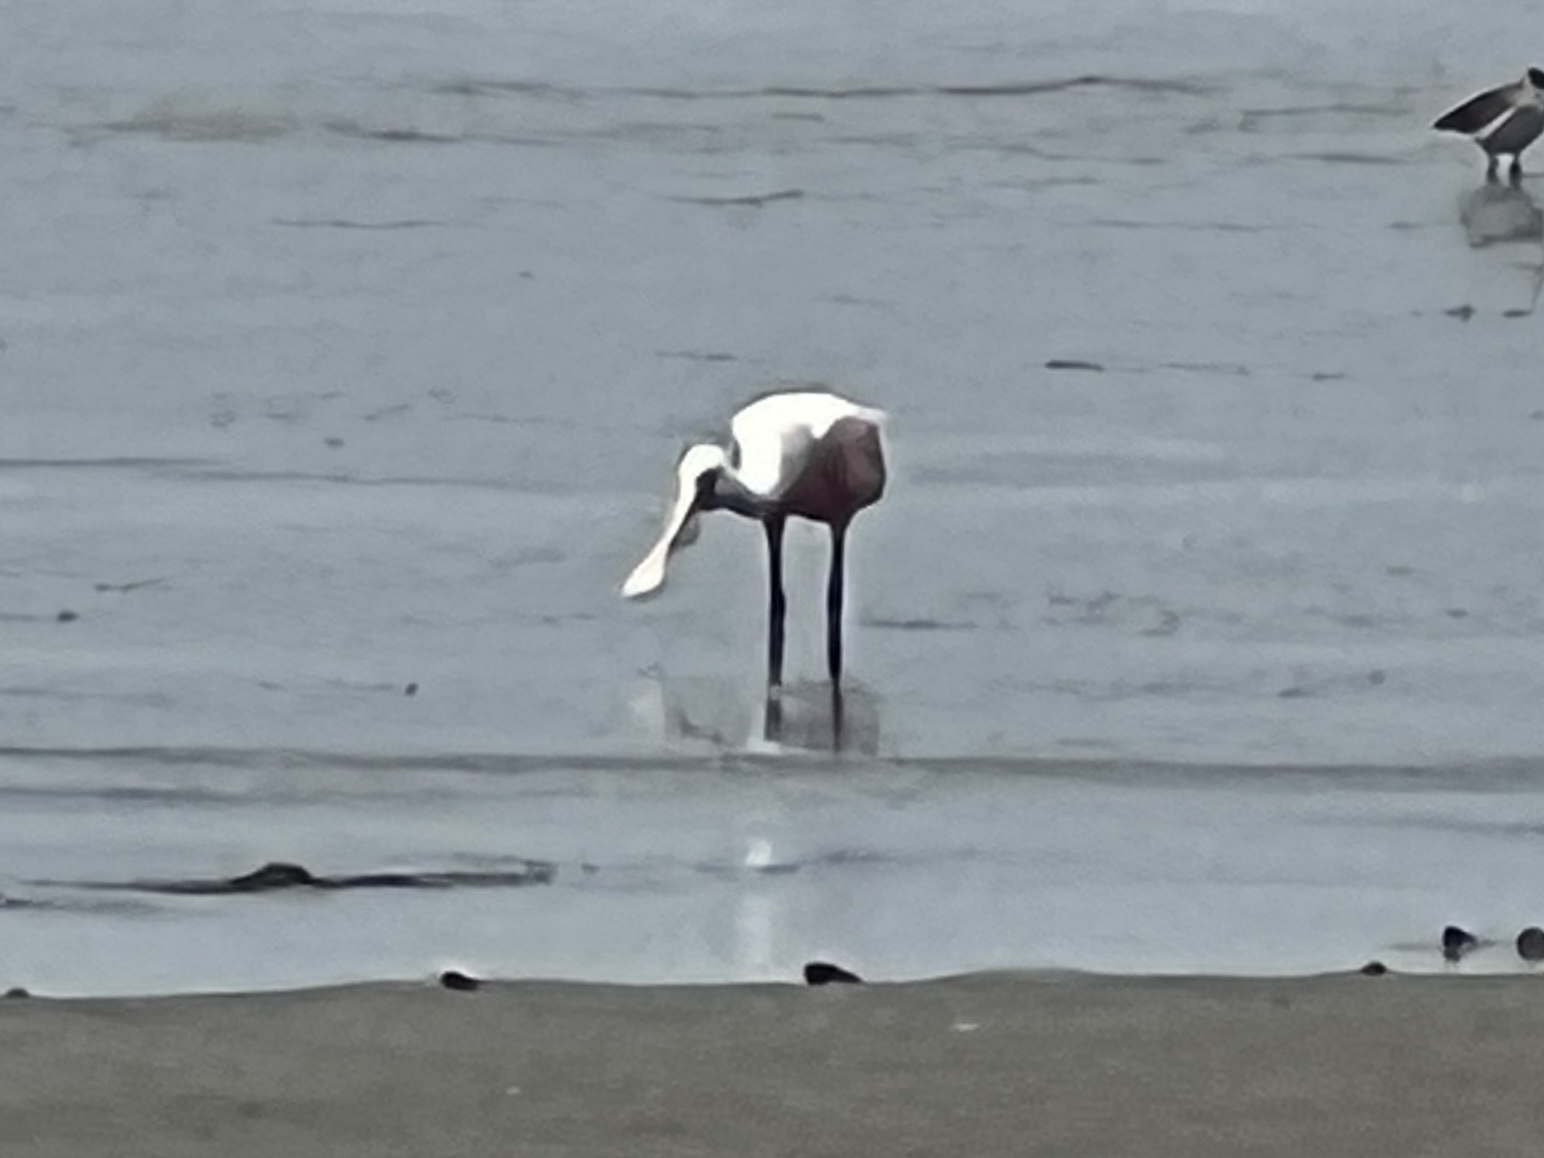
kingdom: Animalia
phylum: Chordata
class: Aves
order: Pelecaniformes
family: Threskiornithidae
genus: Platalea
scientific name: Platalea ajaja
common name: Roseate spoonbill
